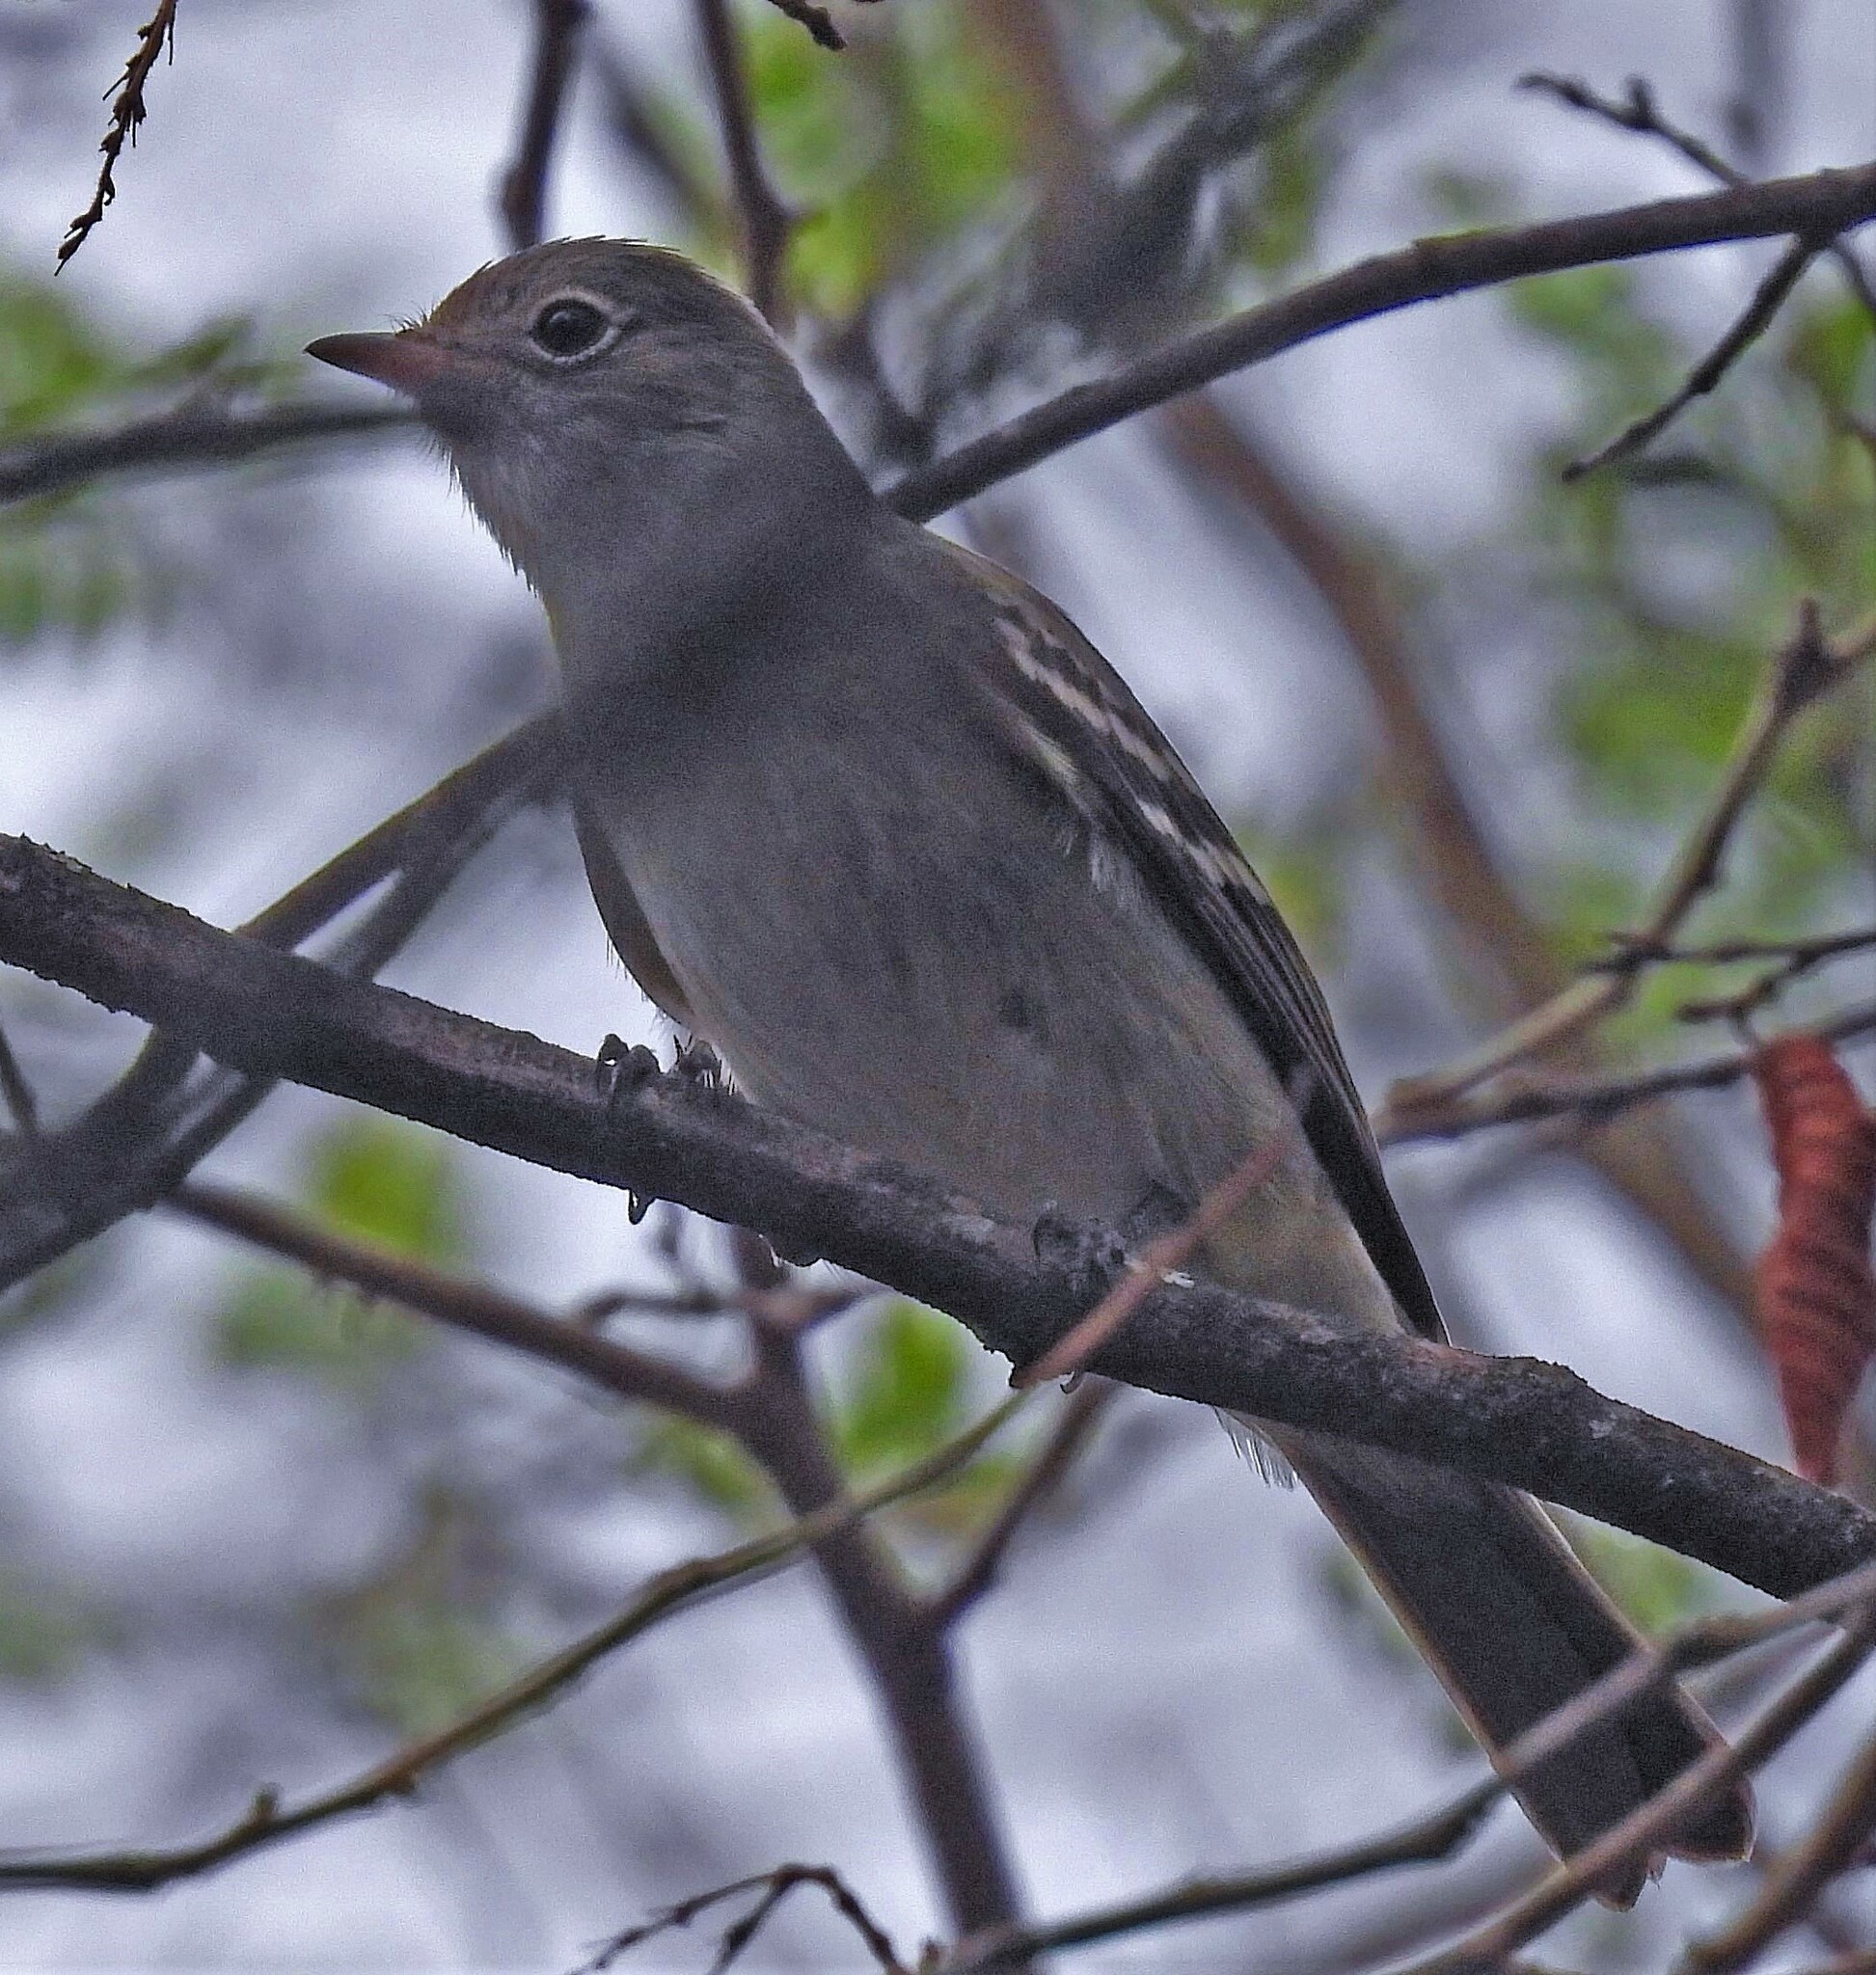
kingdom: Animalia
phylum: Chordata
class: Aves
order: Passeriformes
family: Tyrannidae
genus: Elaenia
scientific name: Elaenia parvirostris
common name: Small-billed elaenia
